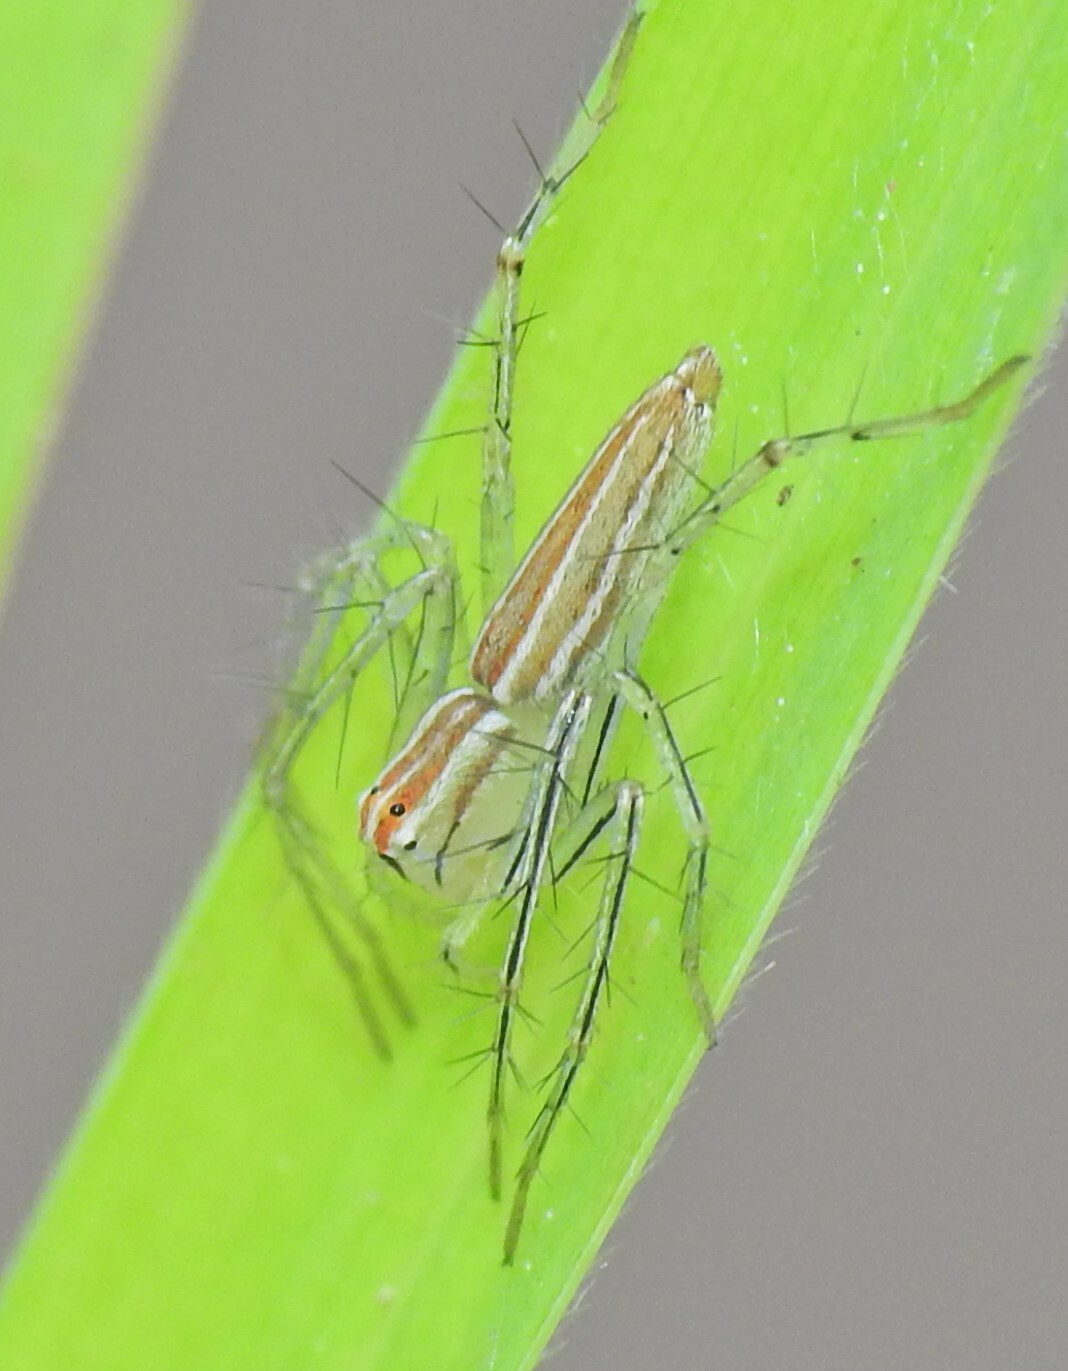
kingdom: Animalia
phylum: Arthropoda
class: Arachnida
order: Araneae
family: Oxyopidae
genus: Oxyopes
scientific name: Oxyopes macilentus
